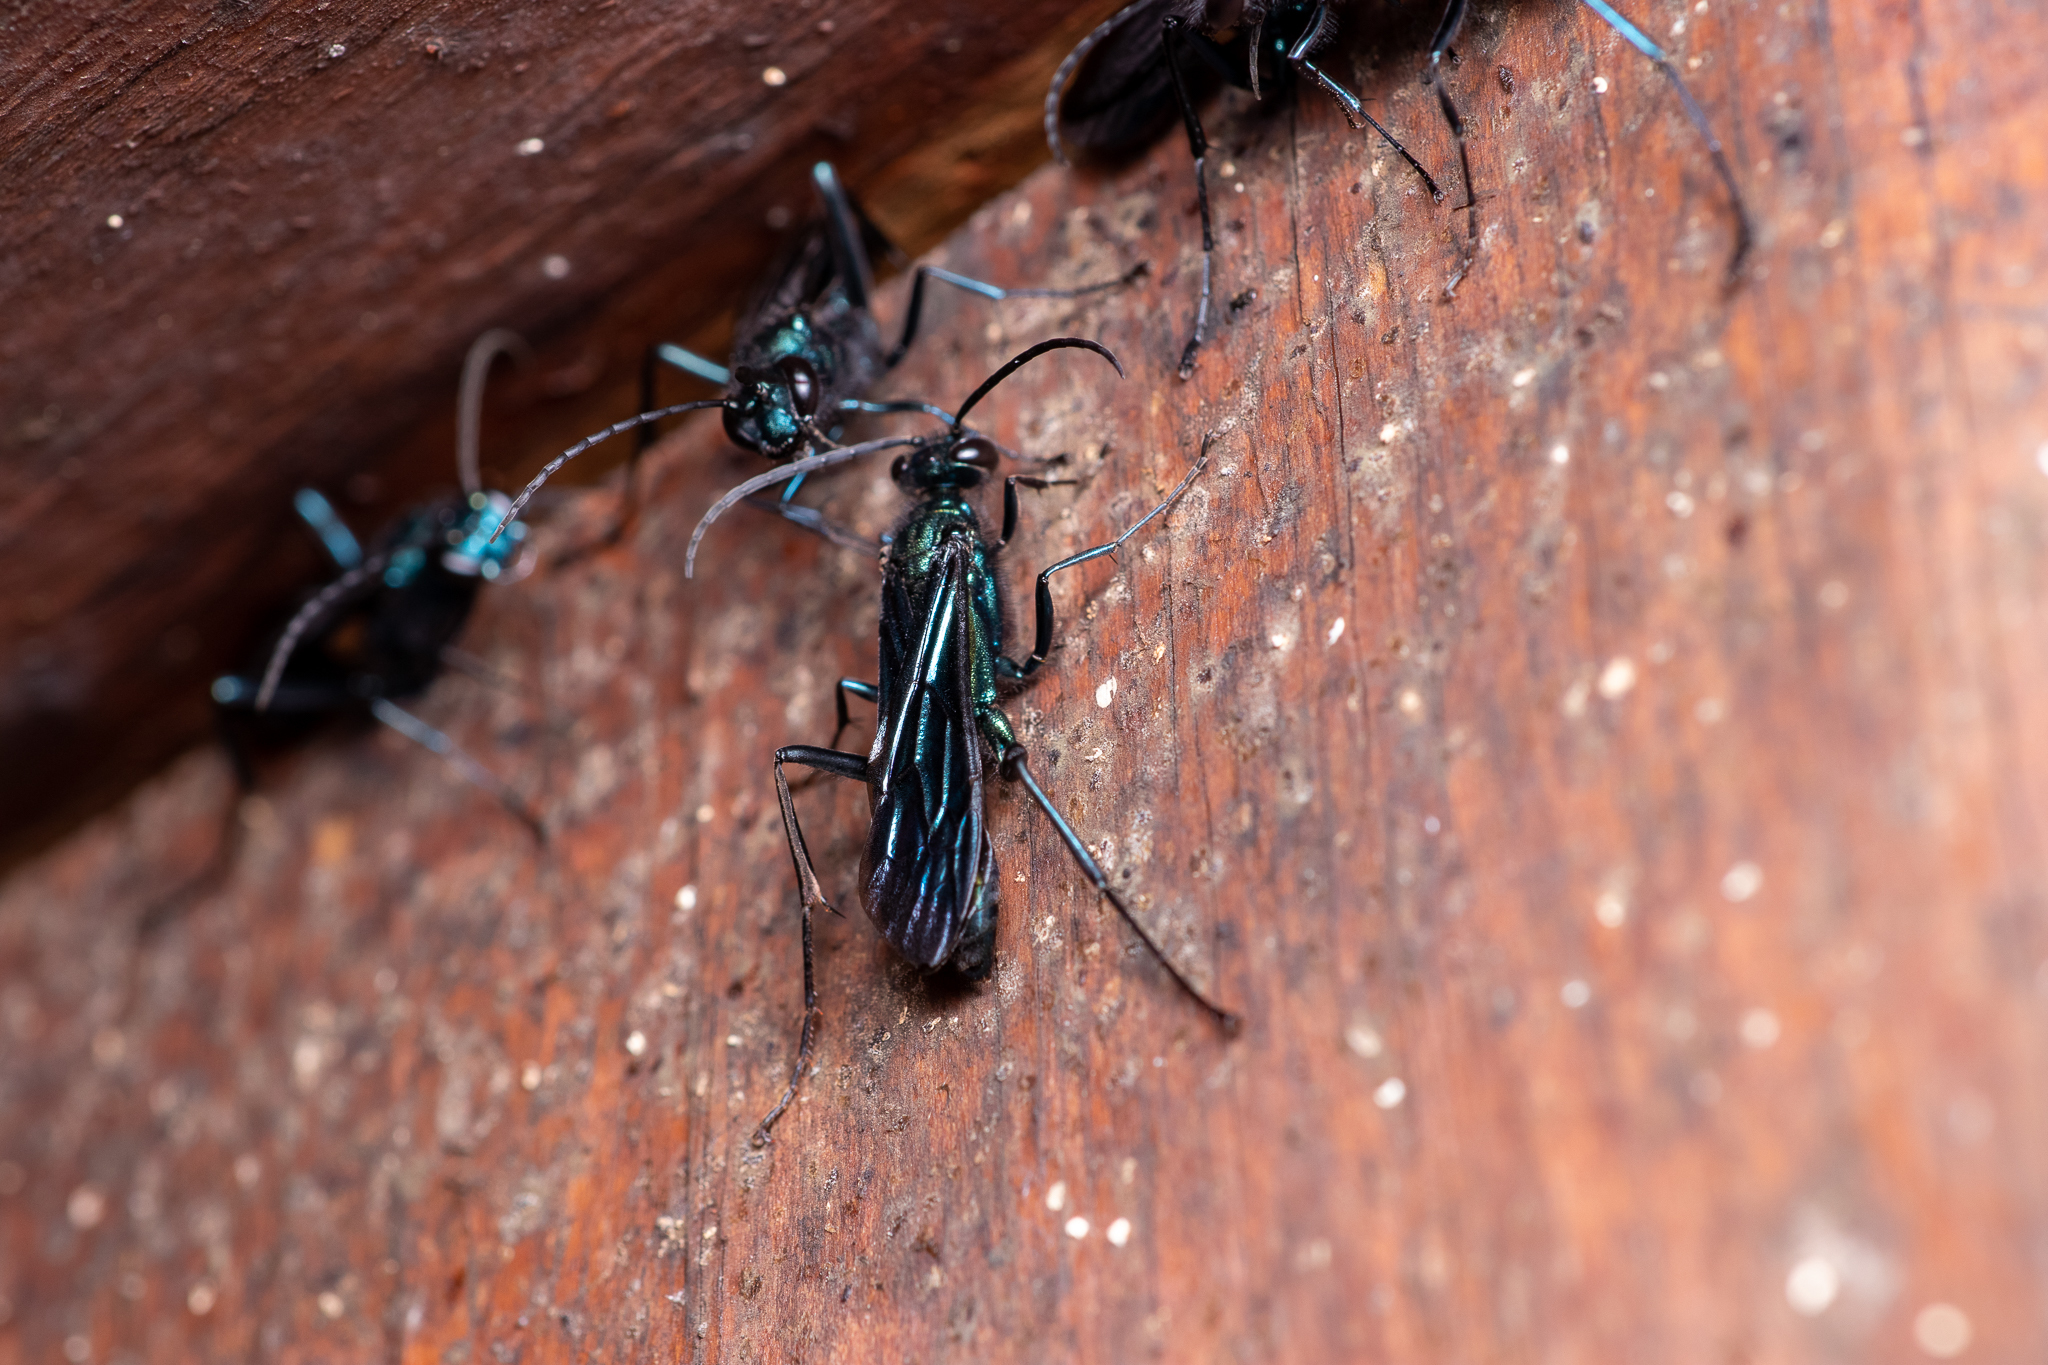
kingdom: Animalia
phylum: Arthropoda
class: Insecta
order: Hymenoptera
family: Sphecidae
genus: Chalybion
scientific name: Chalybion californicum
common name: Mud dauber
